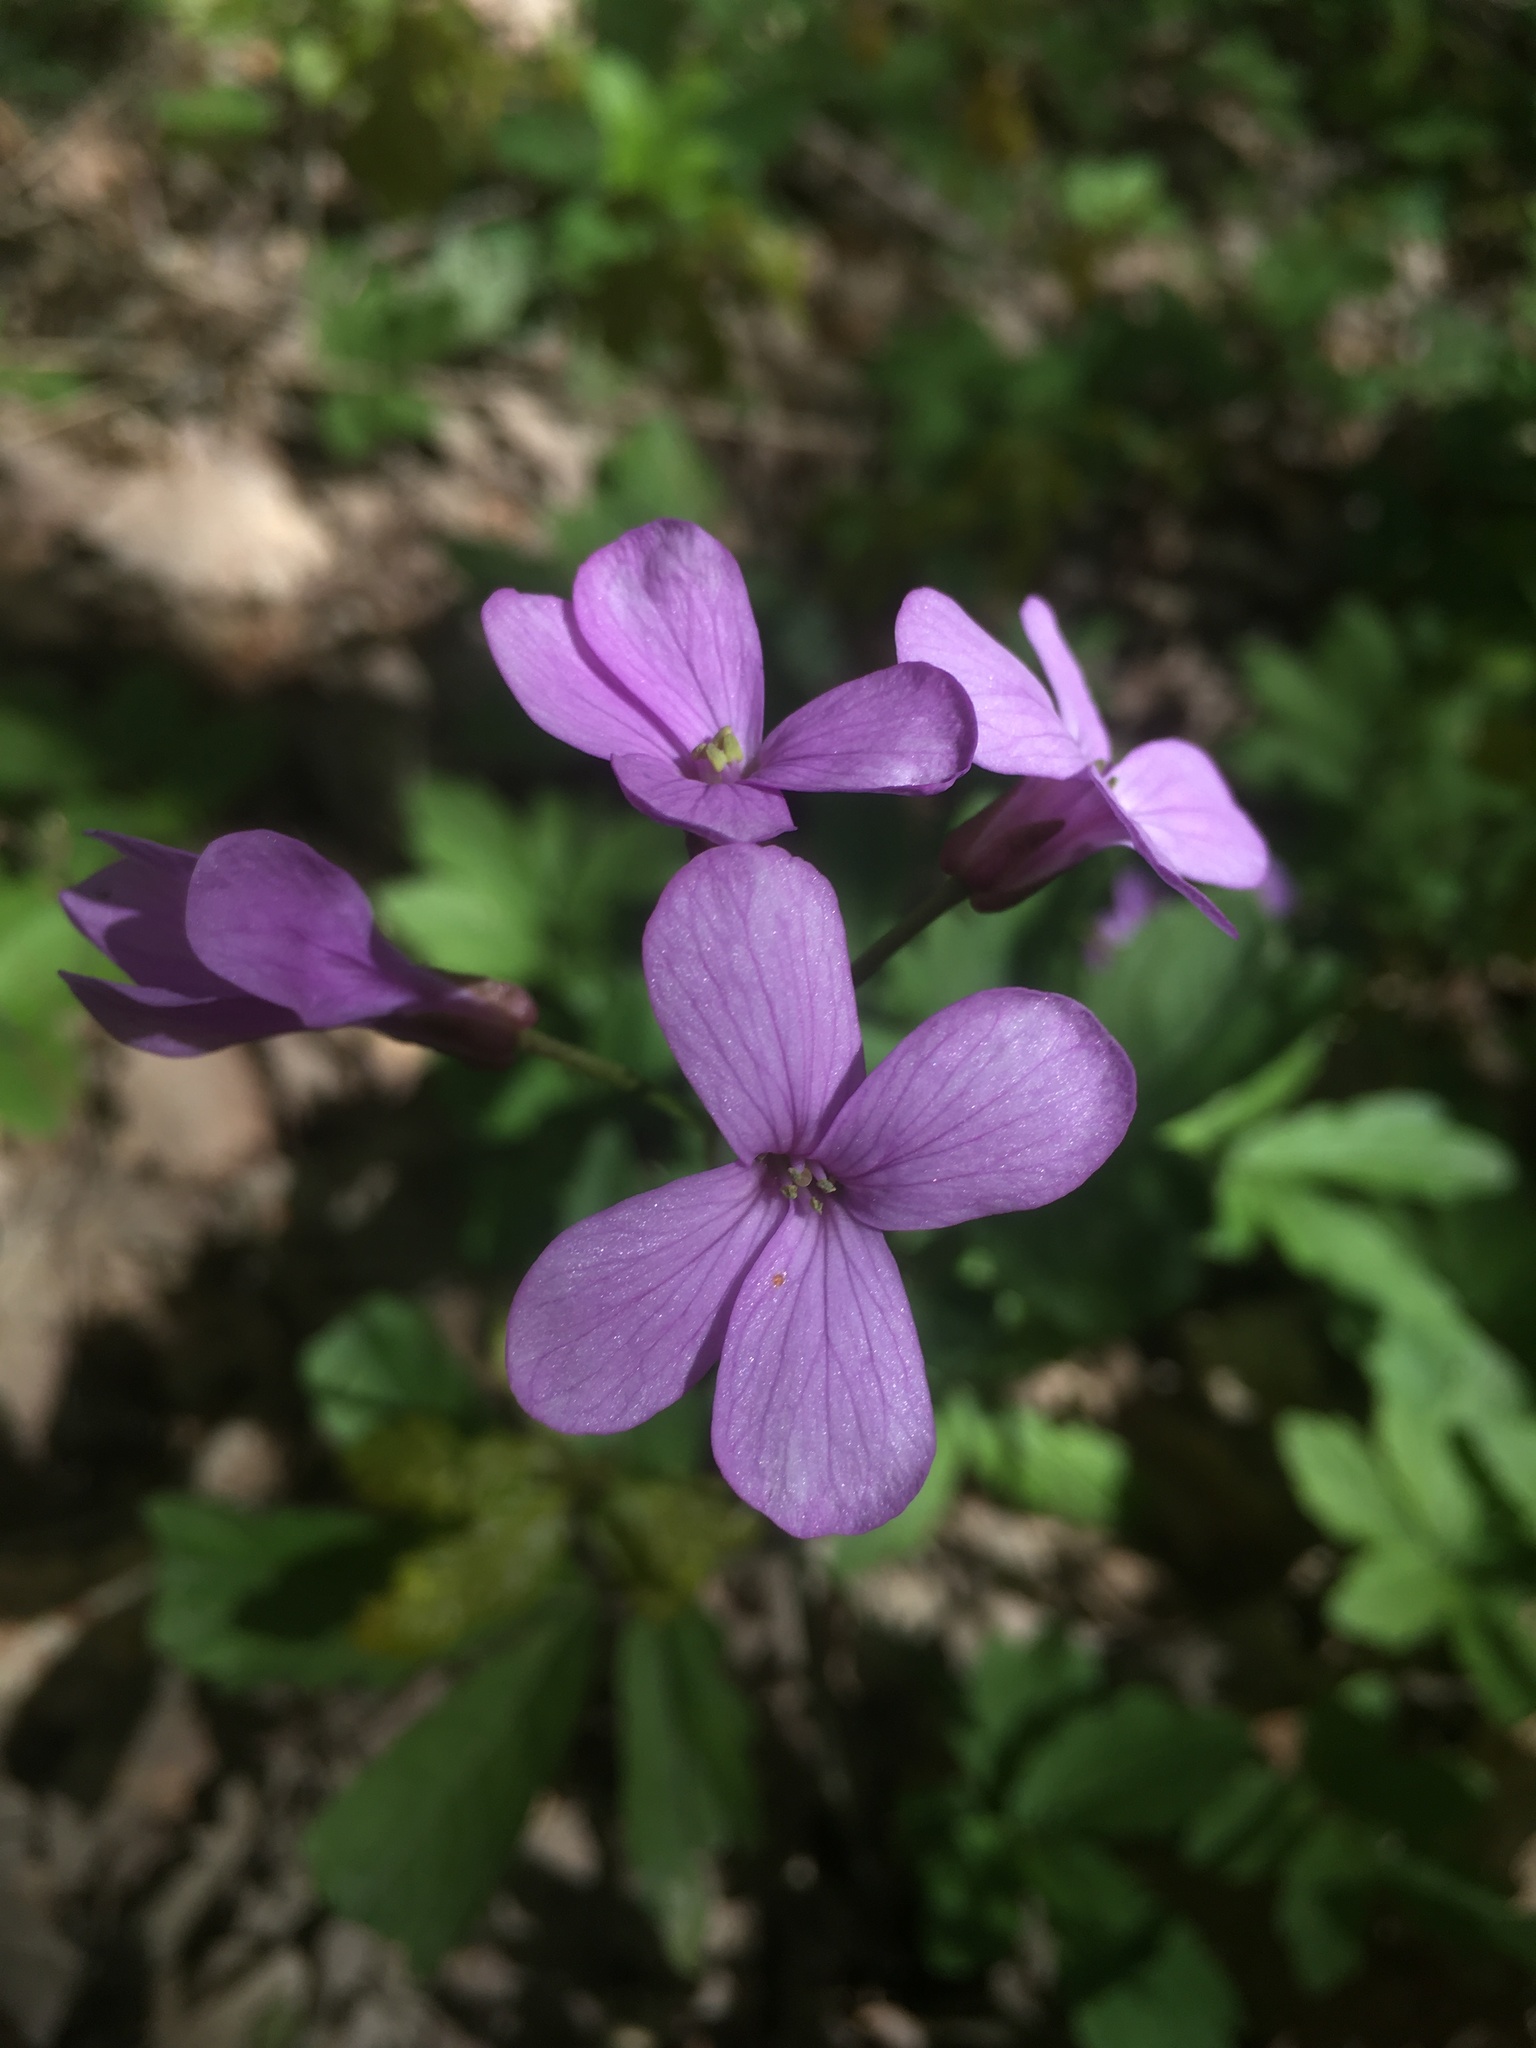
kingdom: Plantae
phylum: Tracheophyta
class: Magnoliopsida
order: Brassicales
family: Brassicaceae
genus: Cardamine
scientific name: Cardamine quinquefolia
